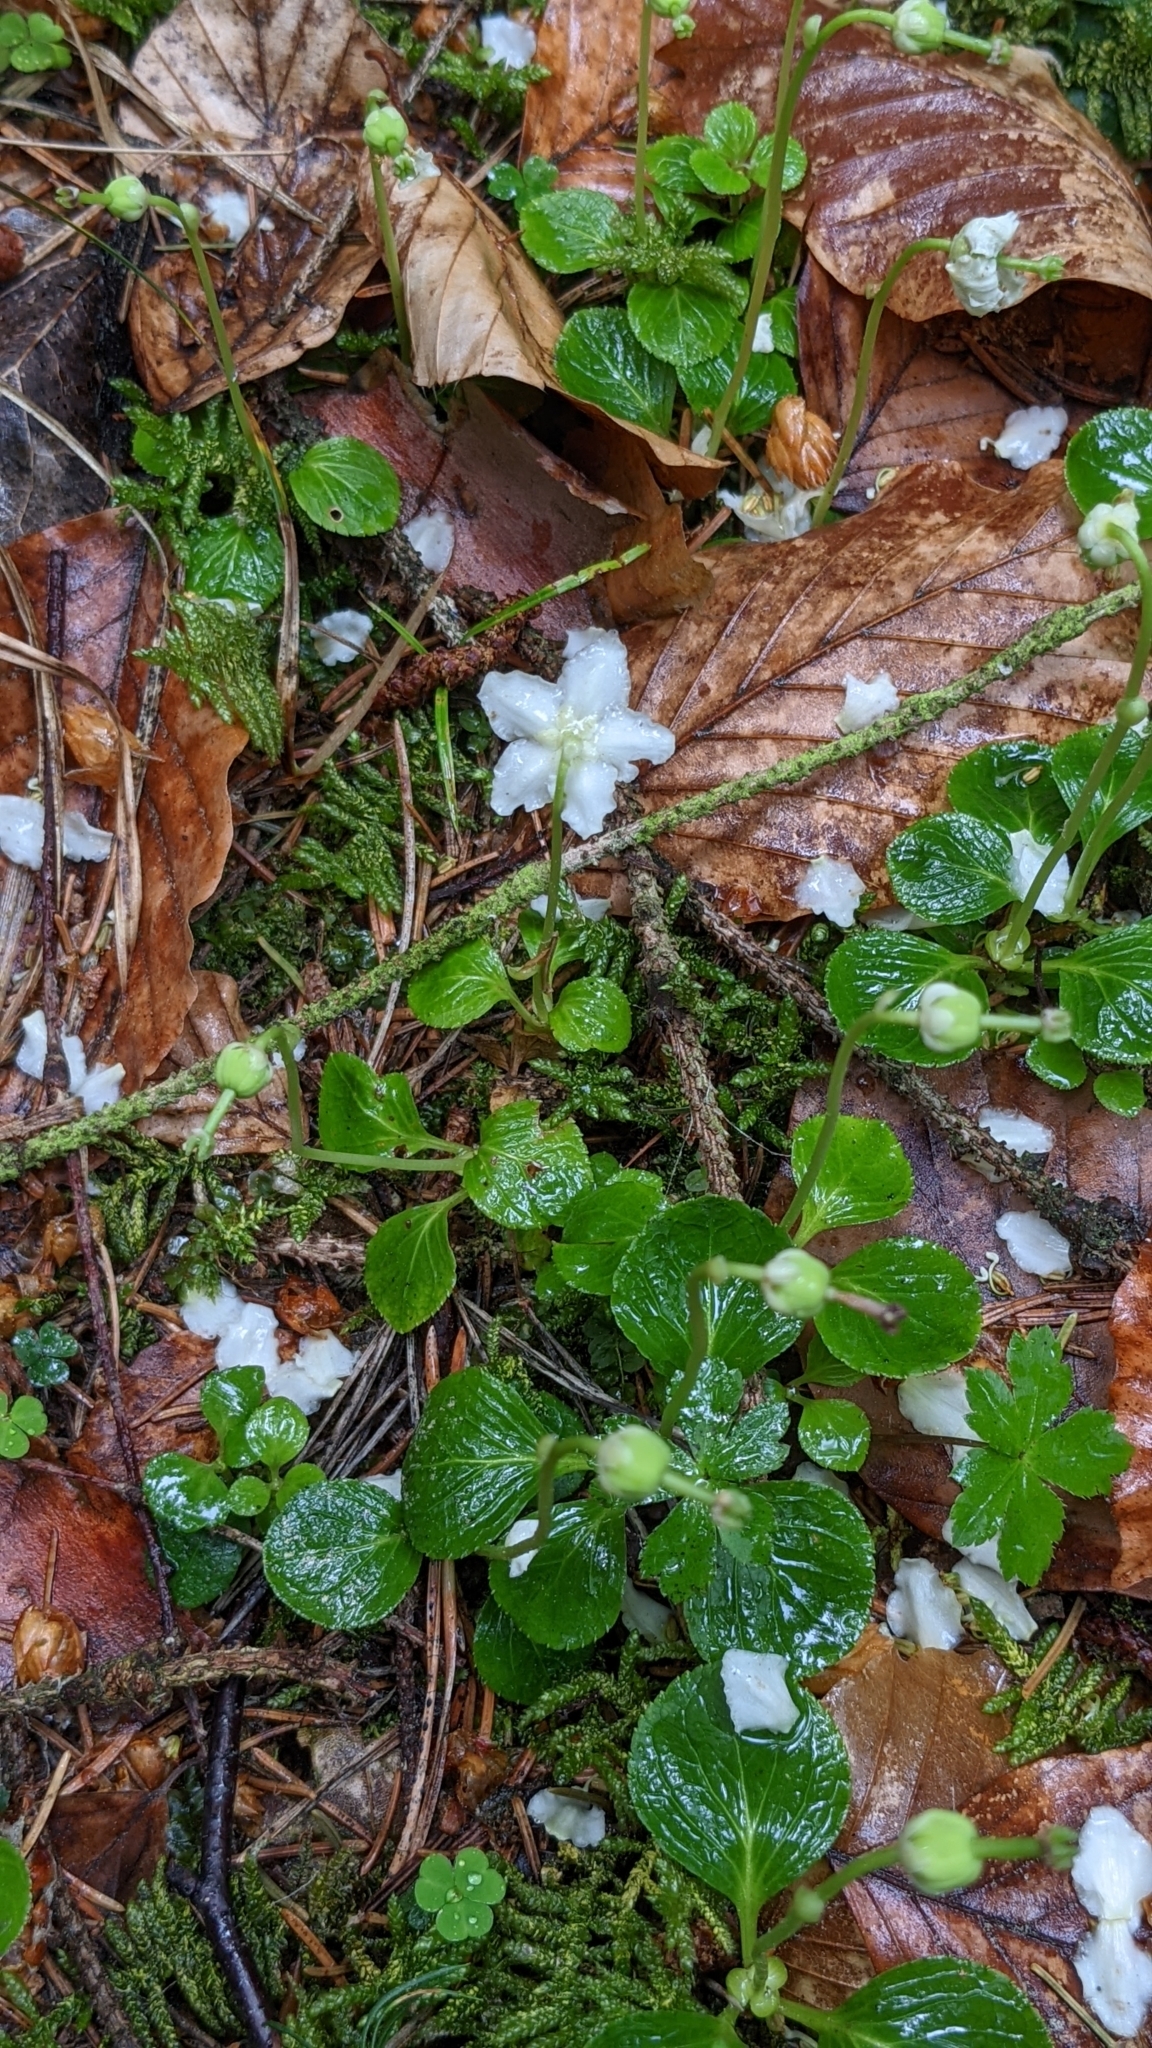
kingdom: Plantae
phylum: Tracheophyta
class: Magnoliopsida
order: Ericales
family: Ericaceae
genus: Moneses
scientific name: Moneses uniflora
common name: One-flowered wintergreen
